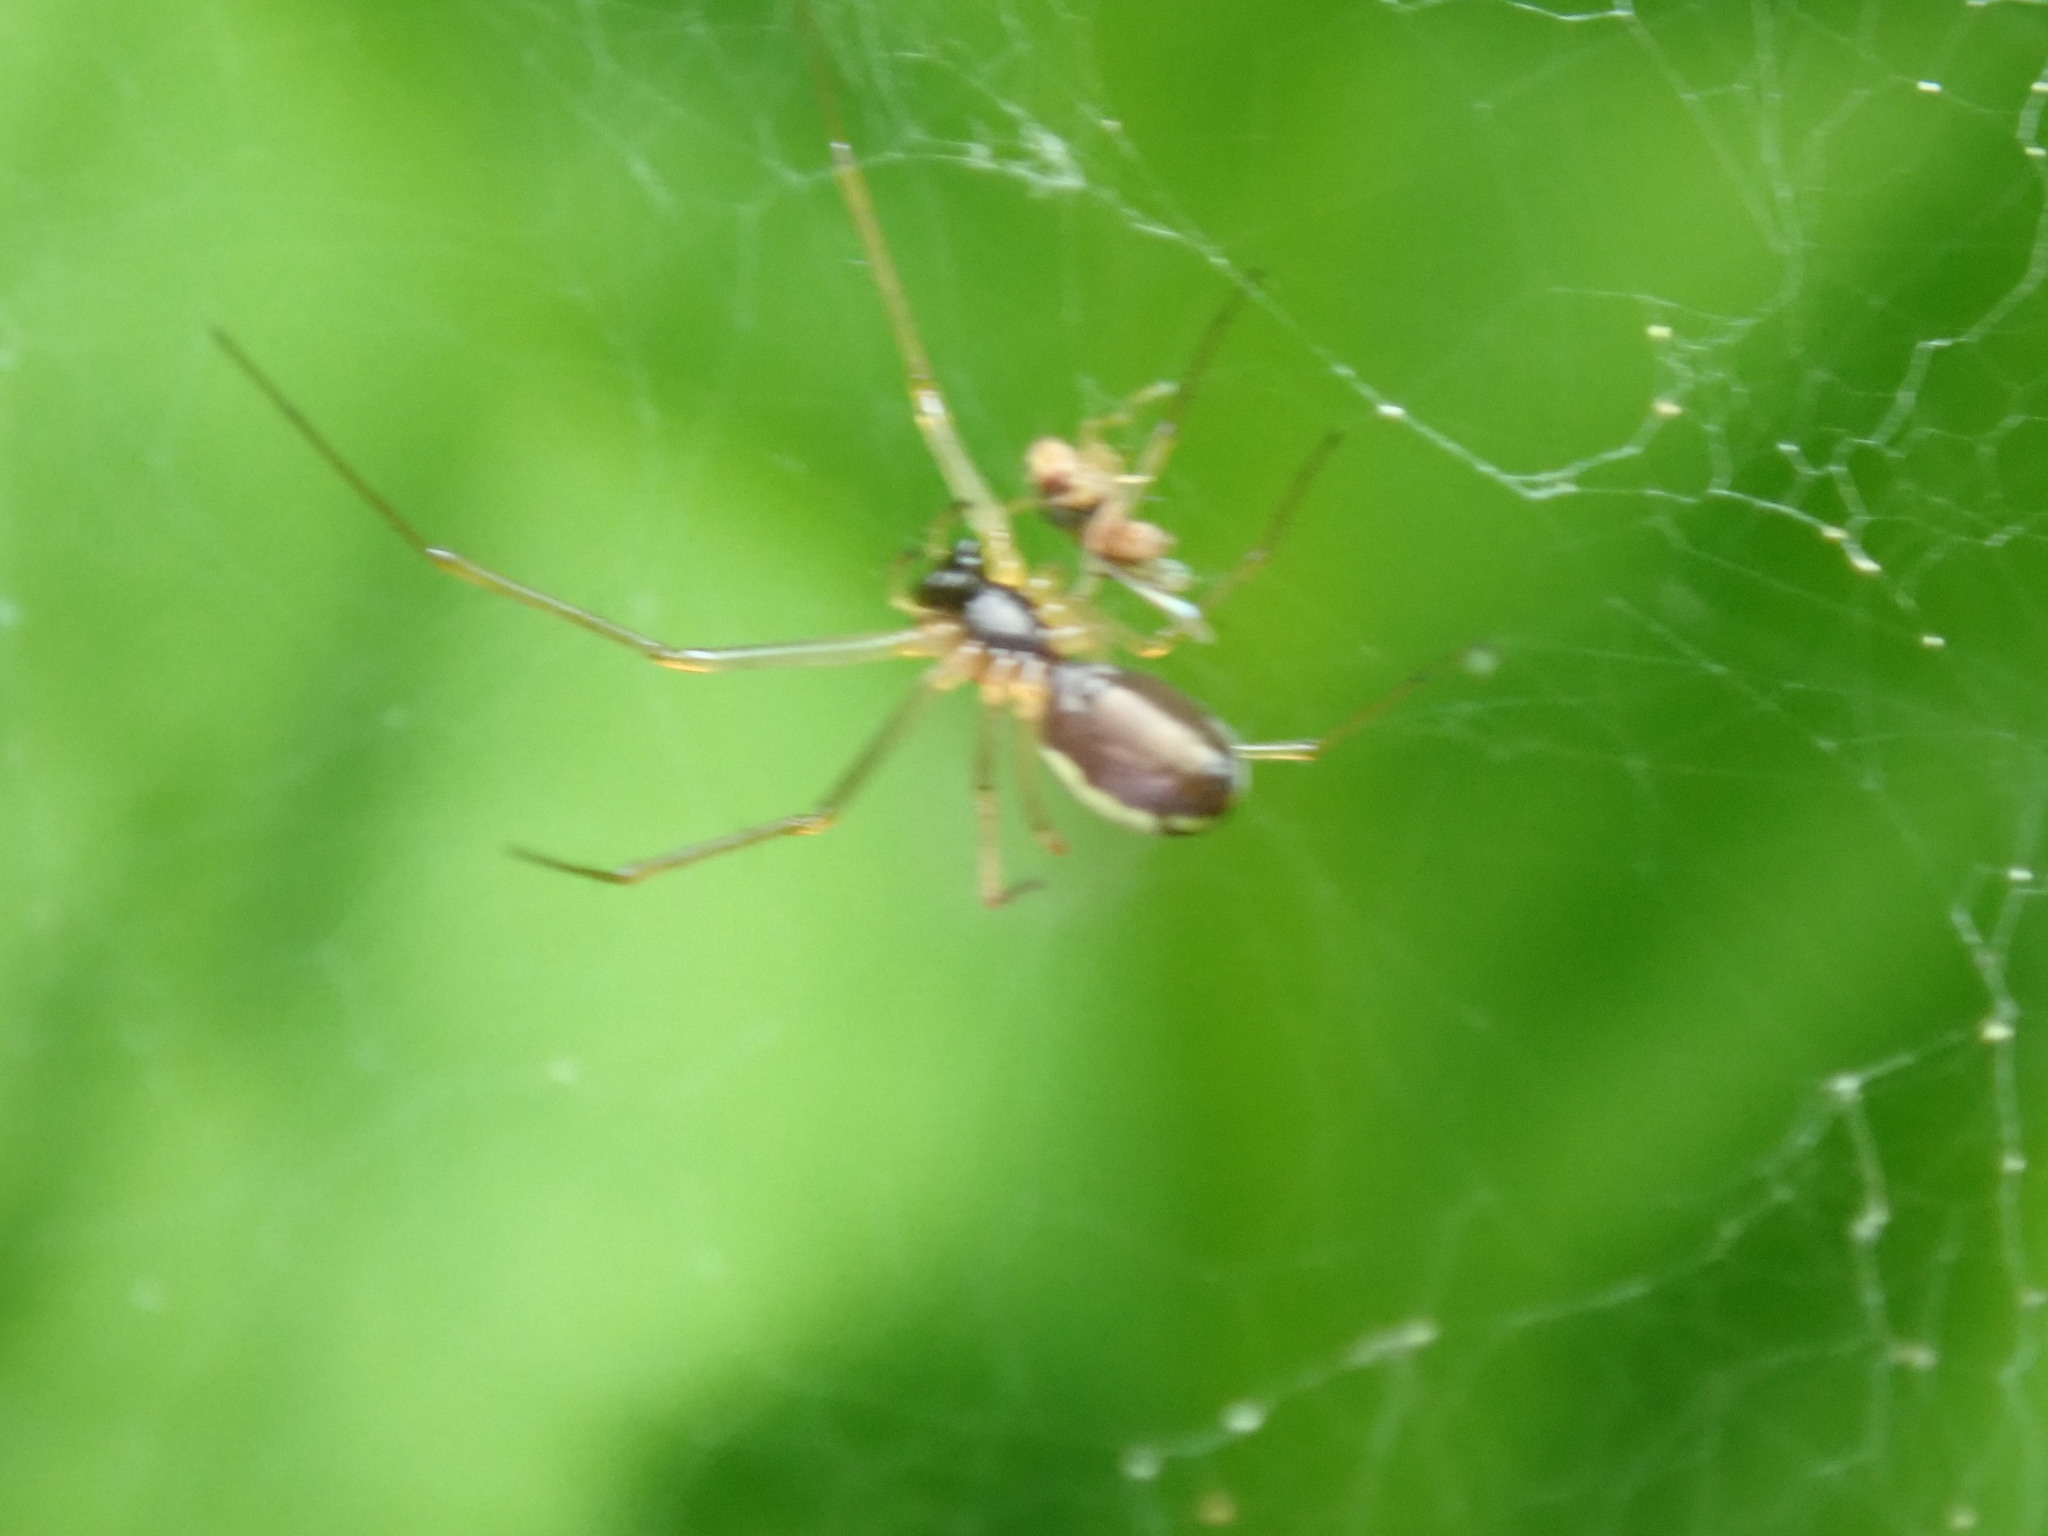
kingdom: Animalia
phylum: Arthropoda
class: Arachnida
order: Araneae
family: Linyphiidae
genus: Microlinyphia
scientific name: Microlinyphia dana
